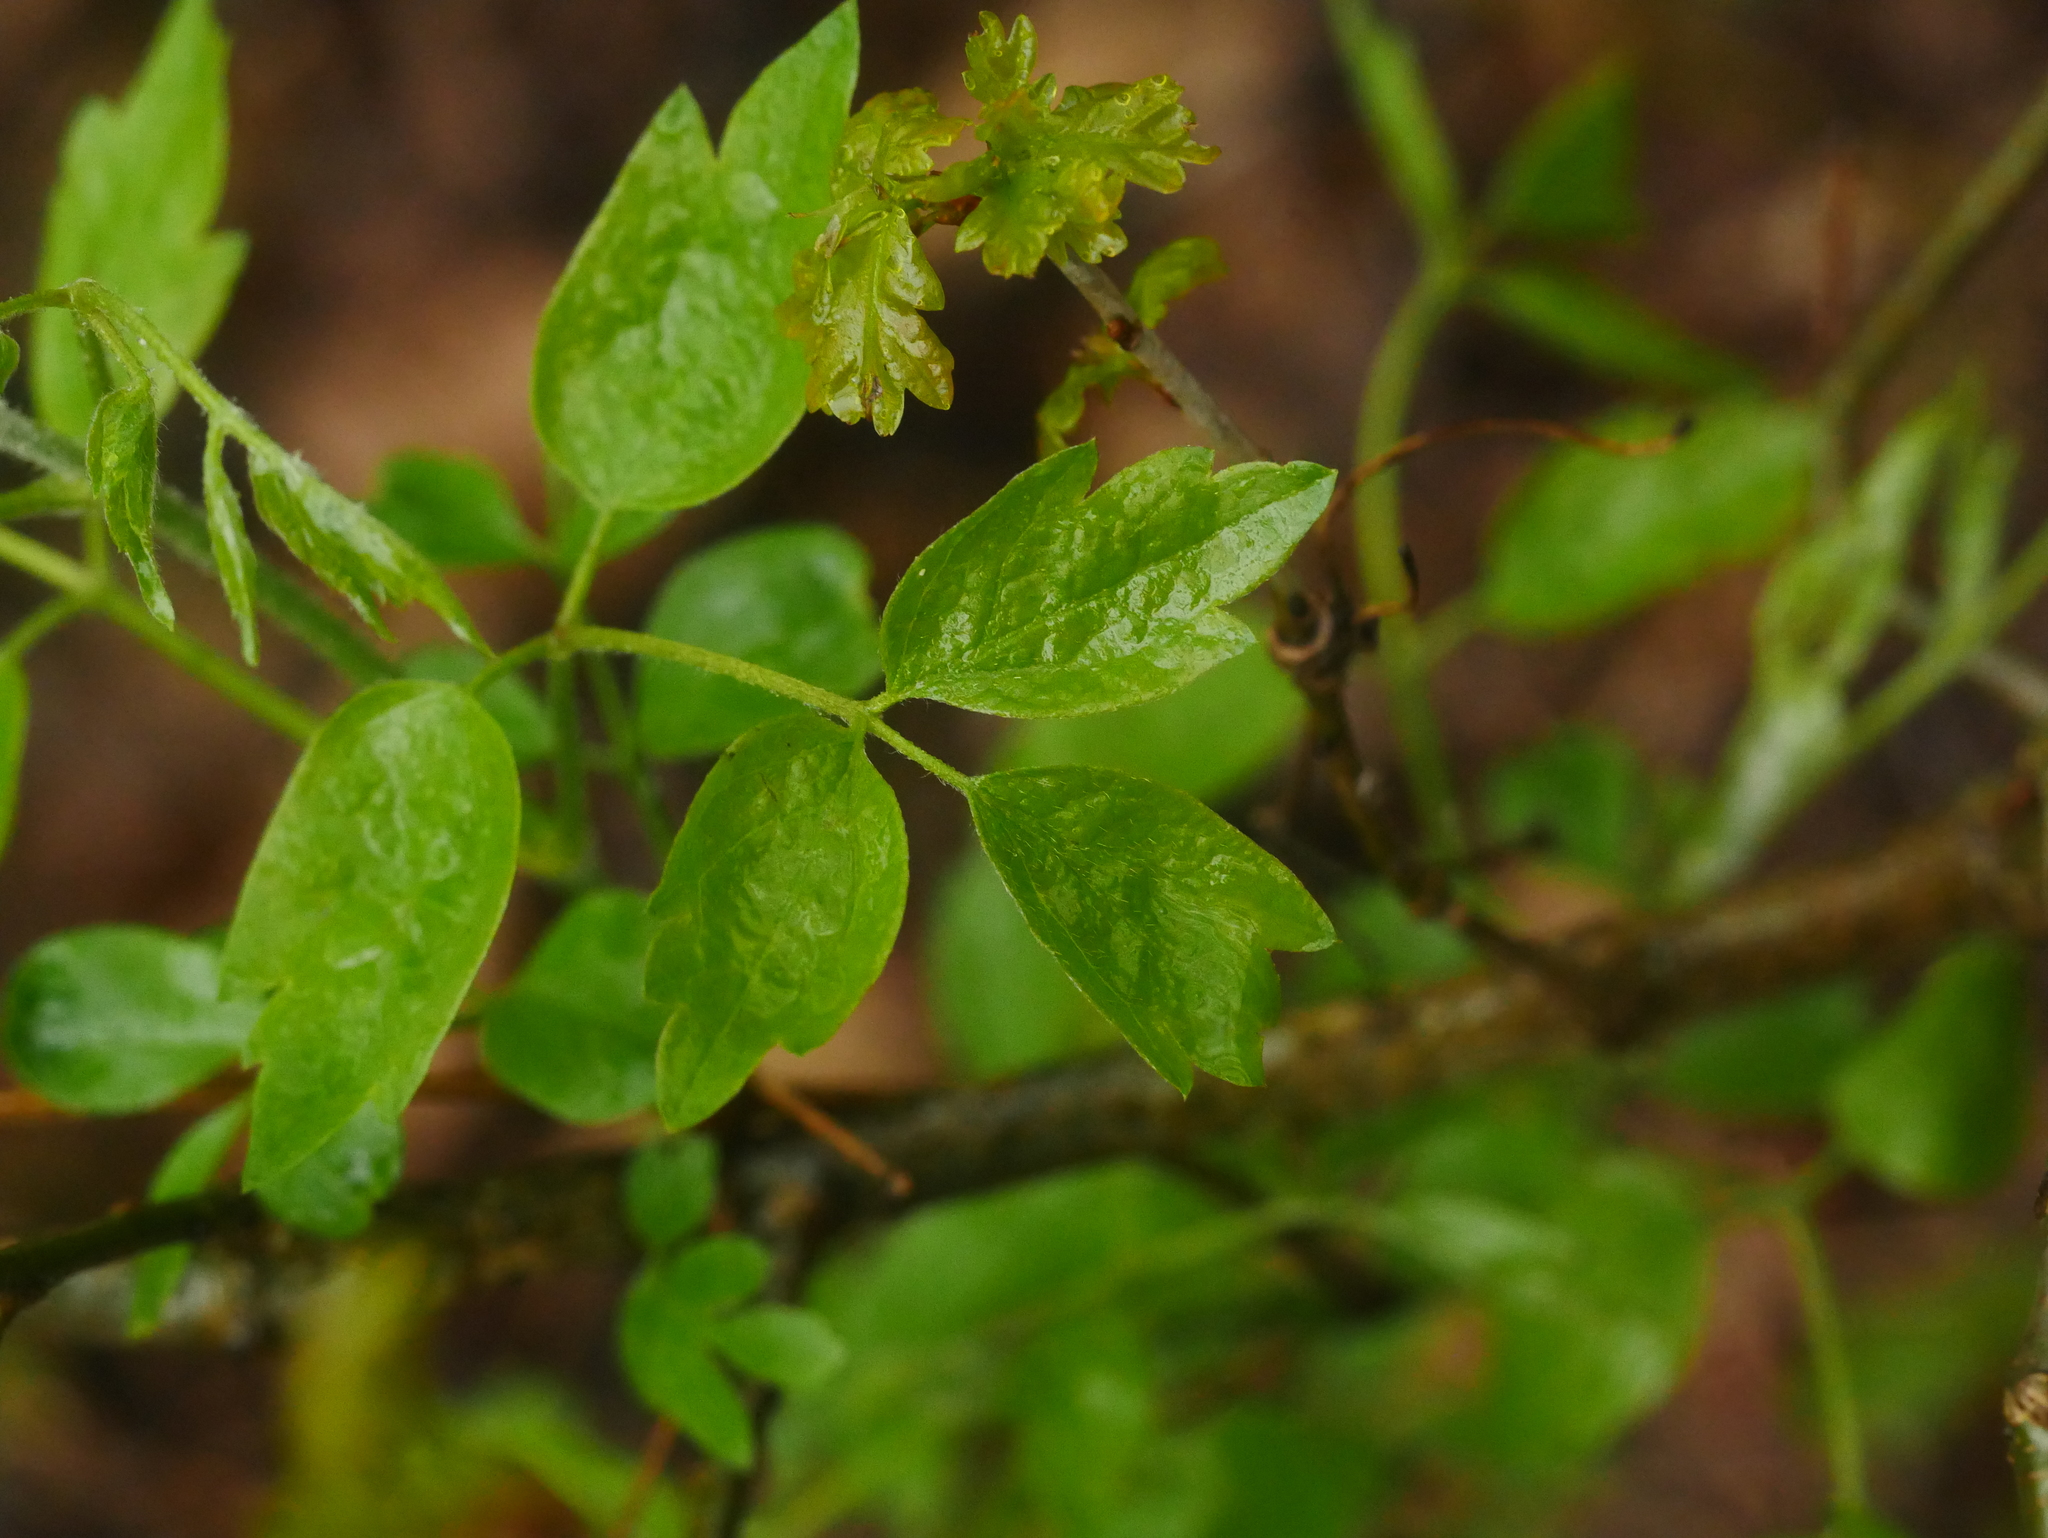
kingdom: Plantae
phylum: Tracheophyta
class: Magnoliopsida
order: Ranunculales
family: Ranunculaceae
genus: Clematis
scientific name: Clematis vitalba
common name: Evergreen clematis
